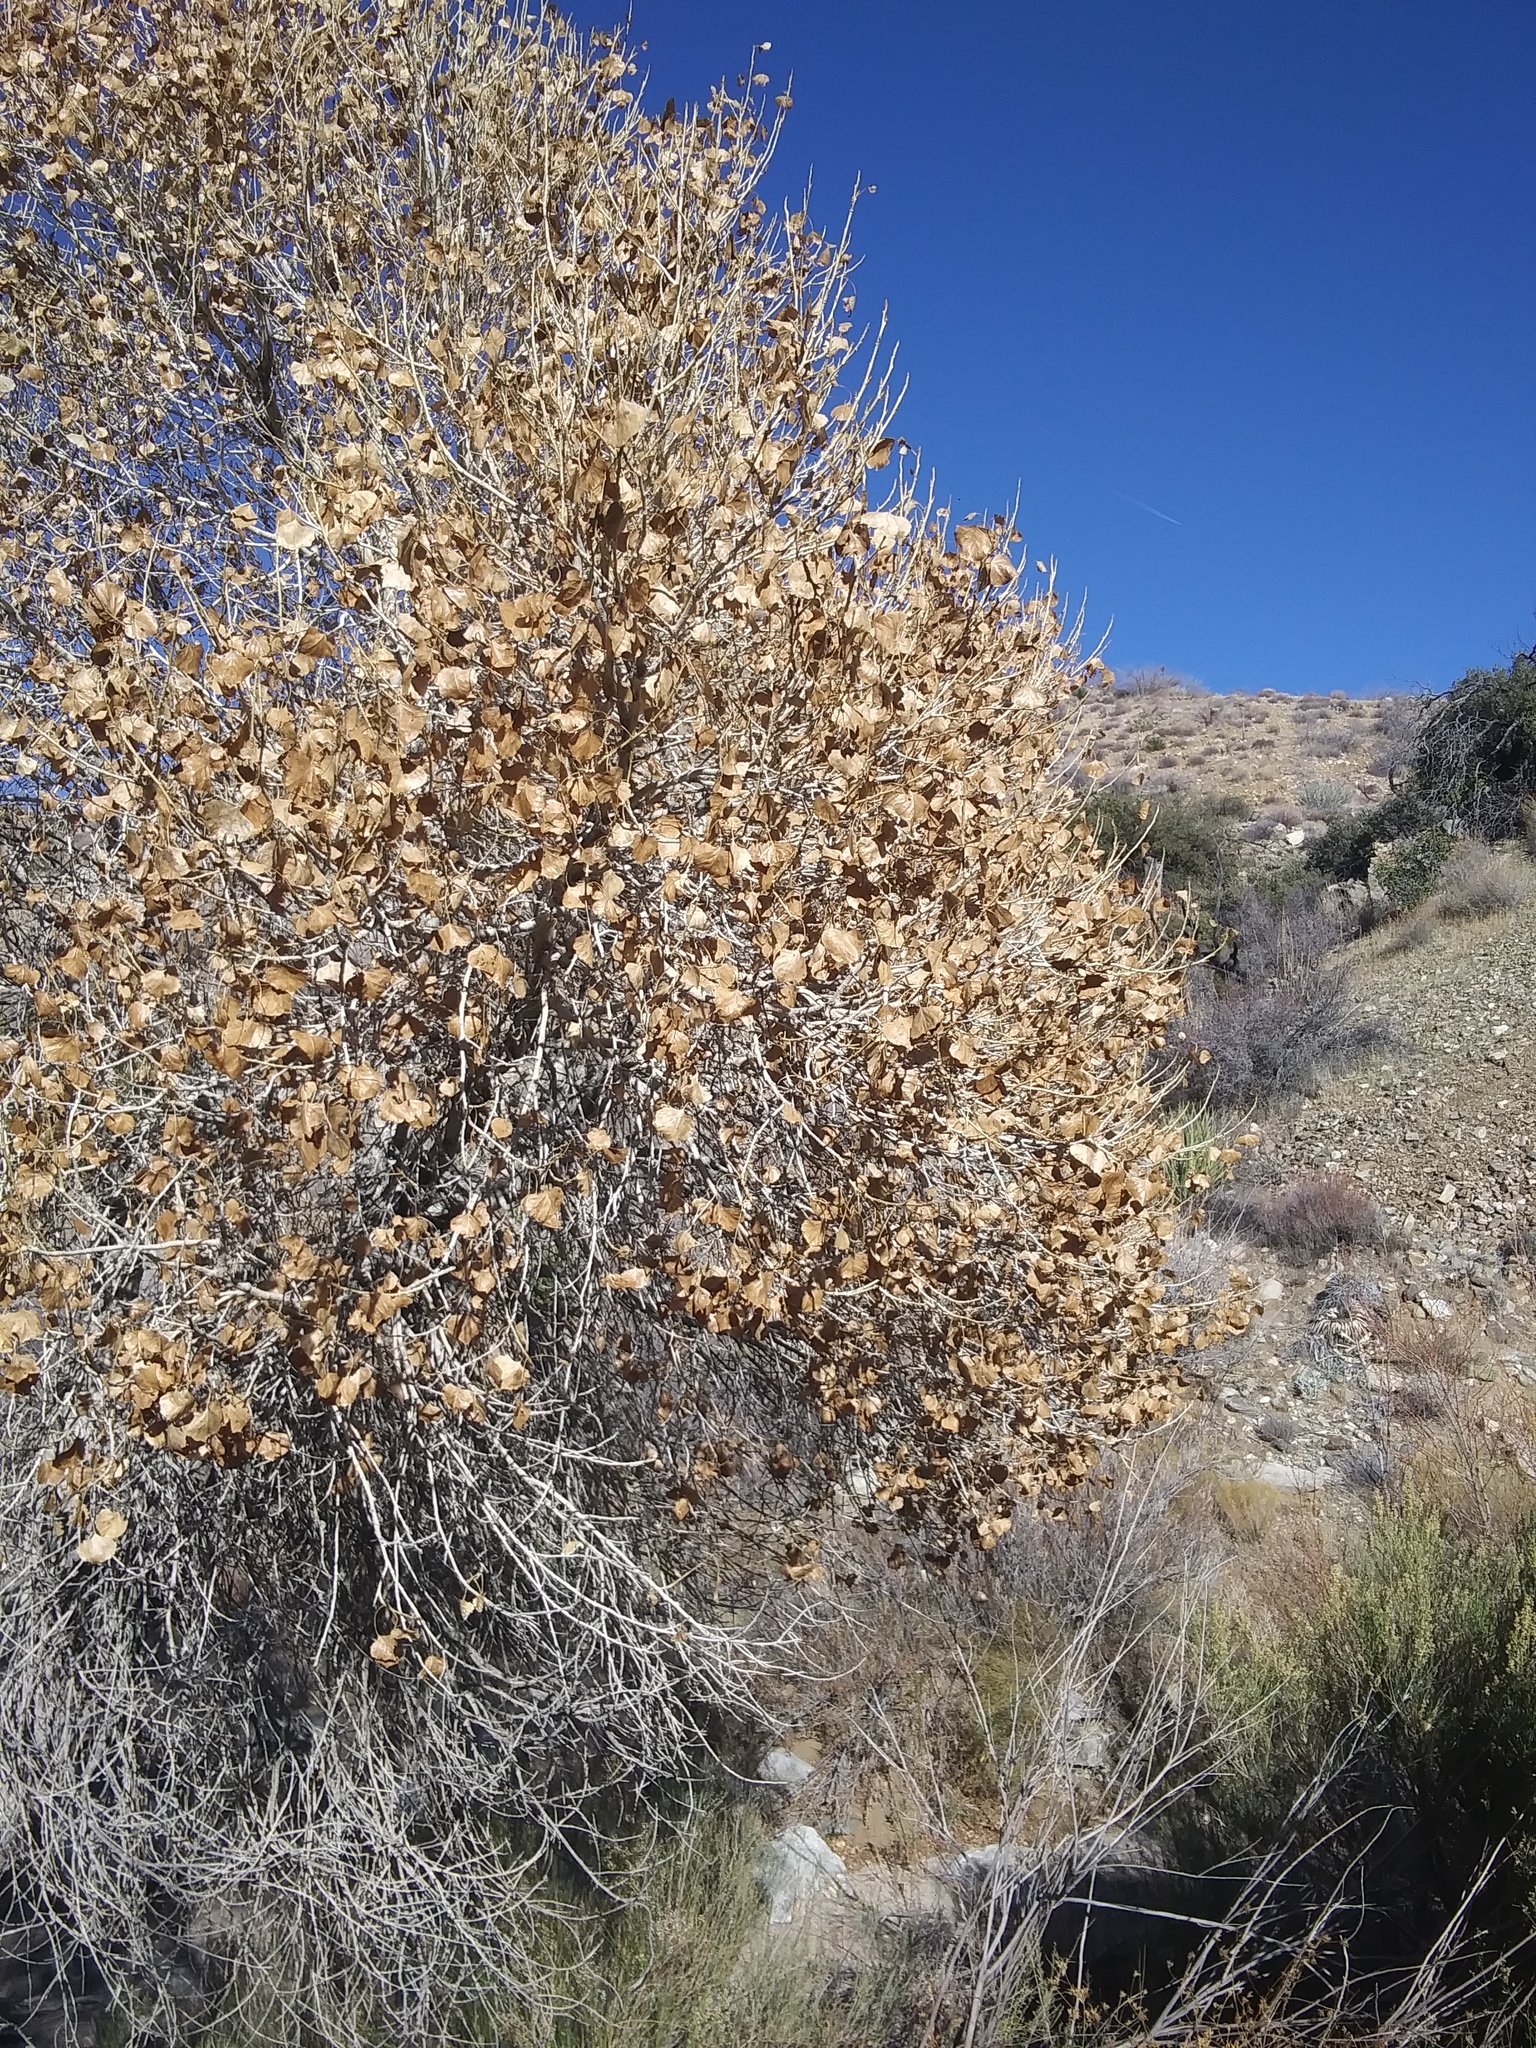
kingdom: Plantae
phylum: Tracheophyta
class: Magnoliopsida
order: Malpighiales
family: Salicaceae
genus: Populus
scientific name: Populus fremontii
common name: Fremont's cottonwood
